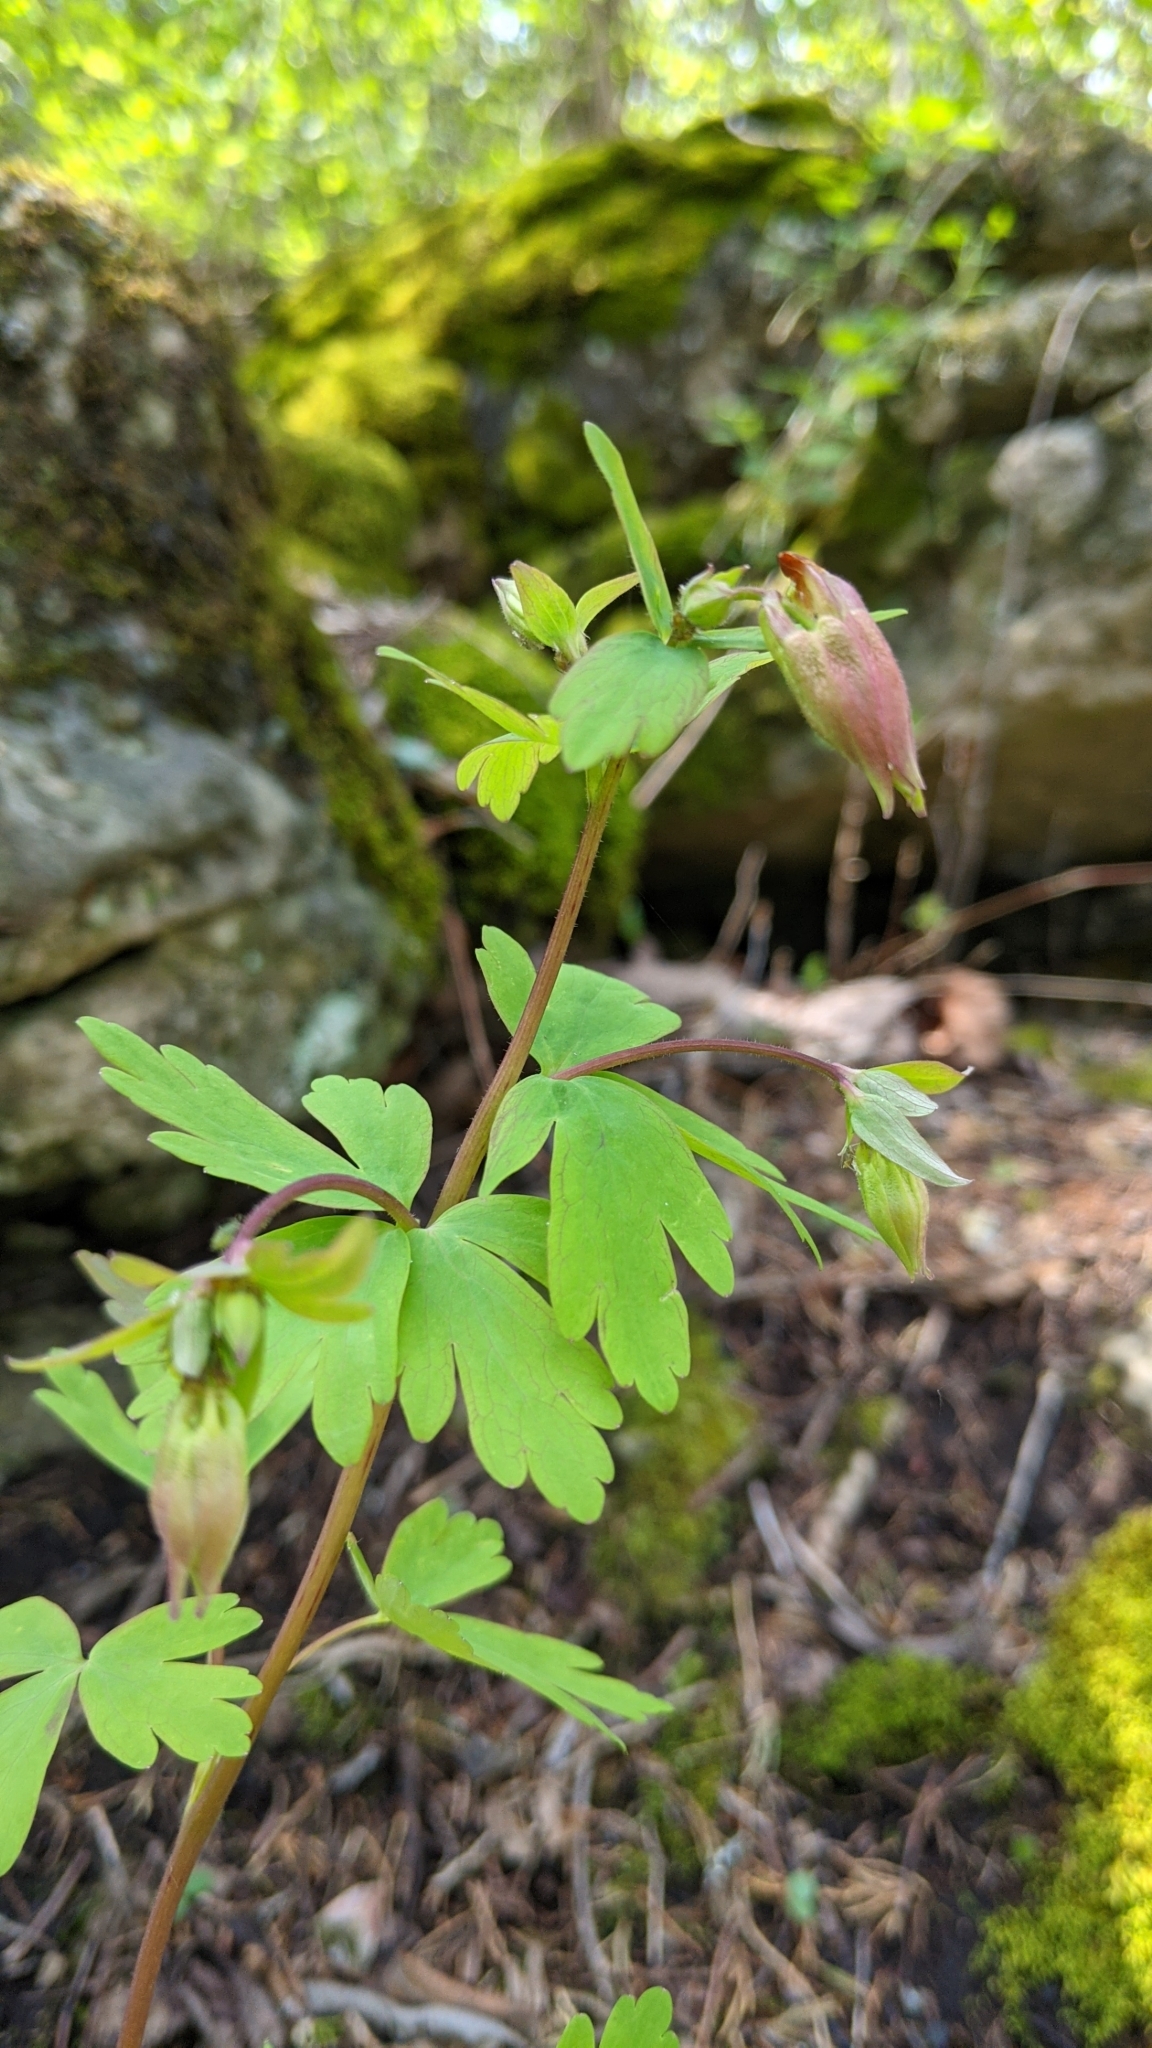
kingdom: Plantae
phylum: Tracheophyta
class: Magnoliopsida
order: Ranunculales
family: Ranunculaceae
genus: Aquilegia
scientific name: Aquilegia canadensis
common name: American columbine
